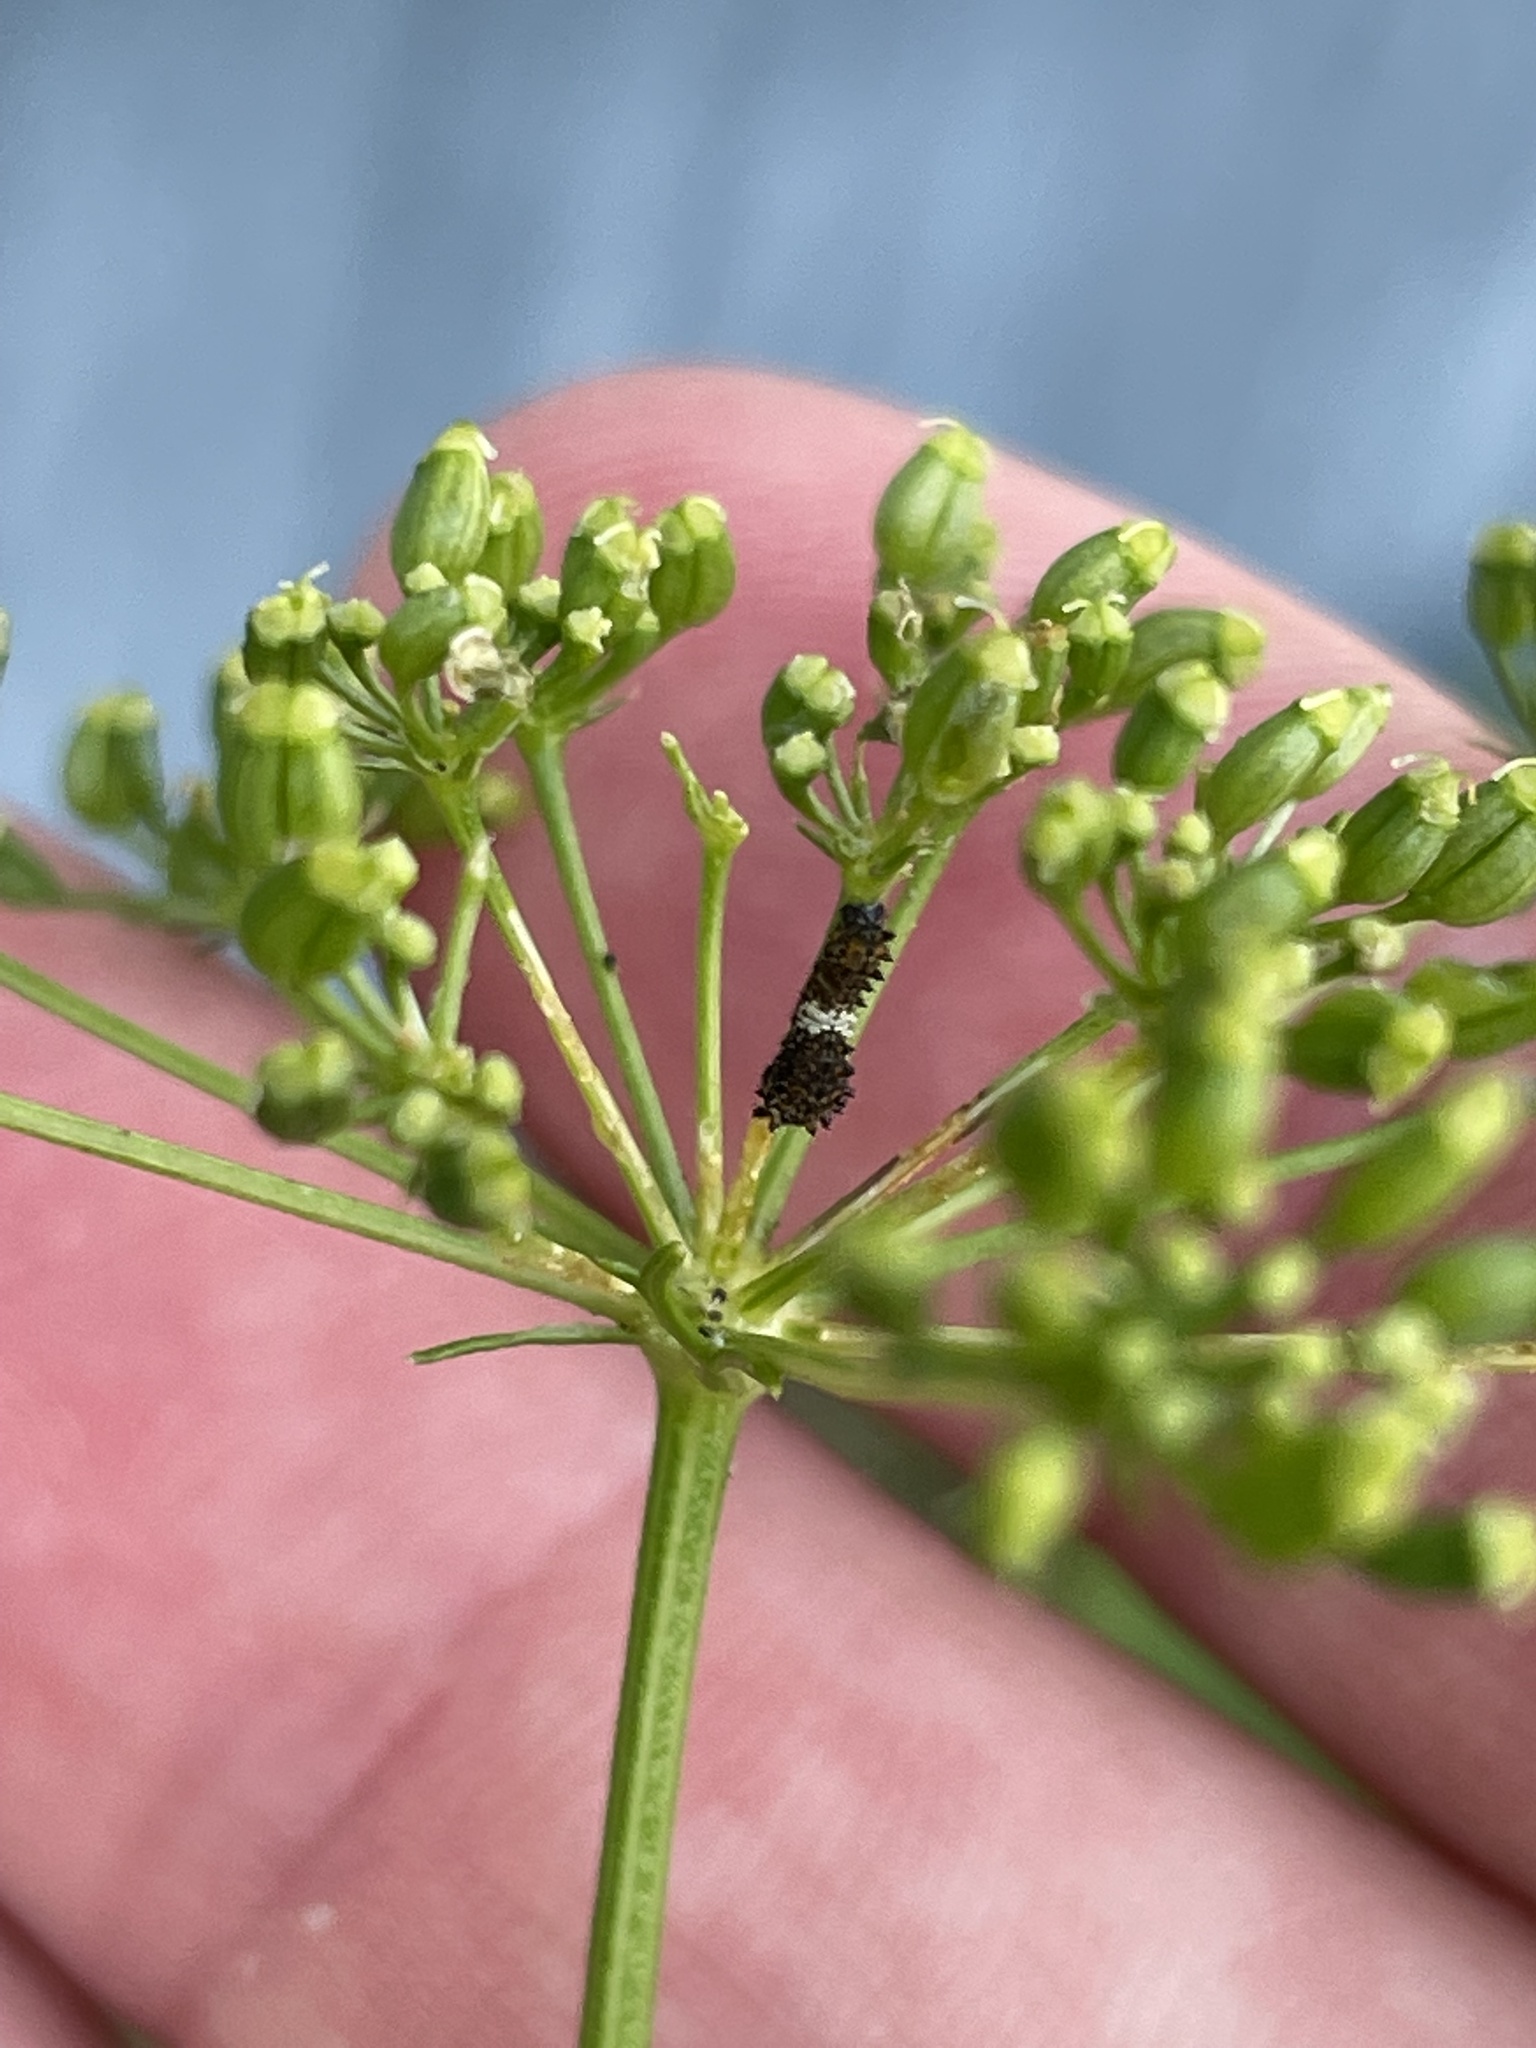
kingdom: Animalia
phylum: Arthropoda
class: Insecta
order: Lepidoptera
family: Papilionidae
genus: Papilio
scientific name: Papilio polyxenes
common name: Black swallowtail
